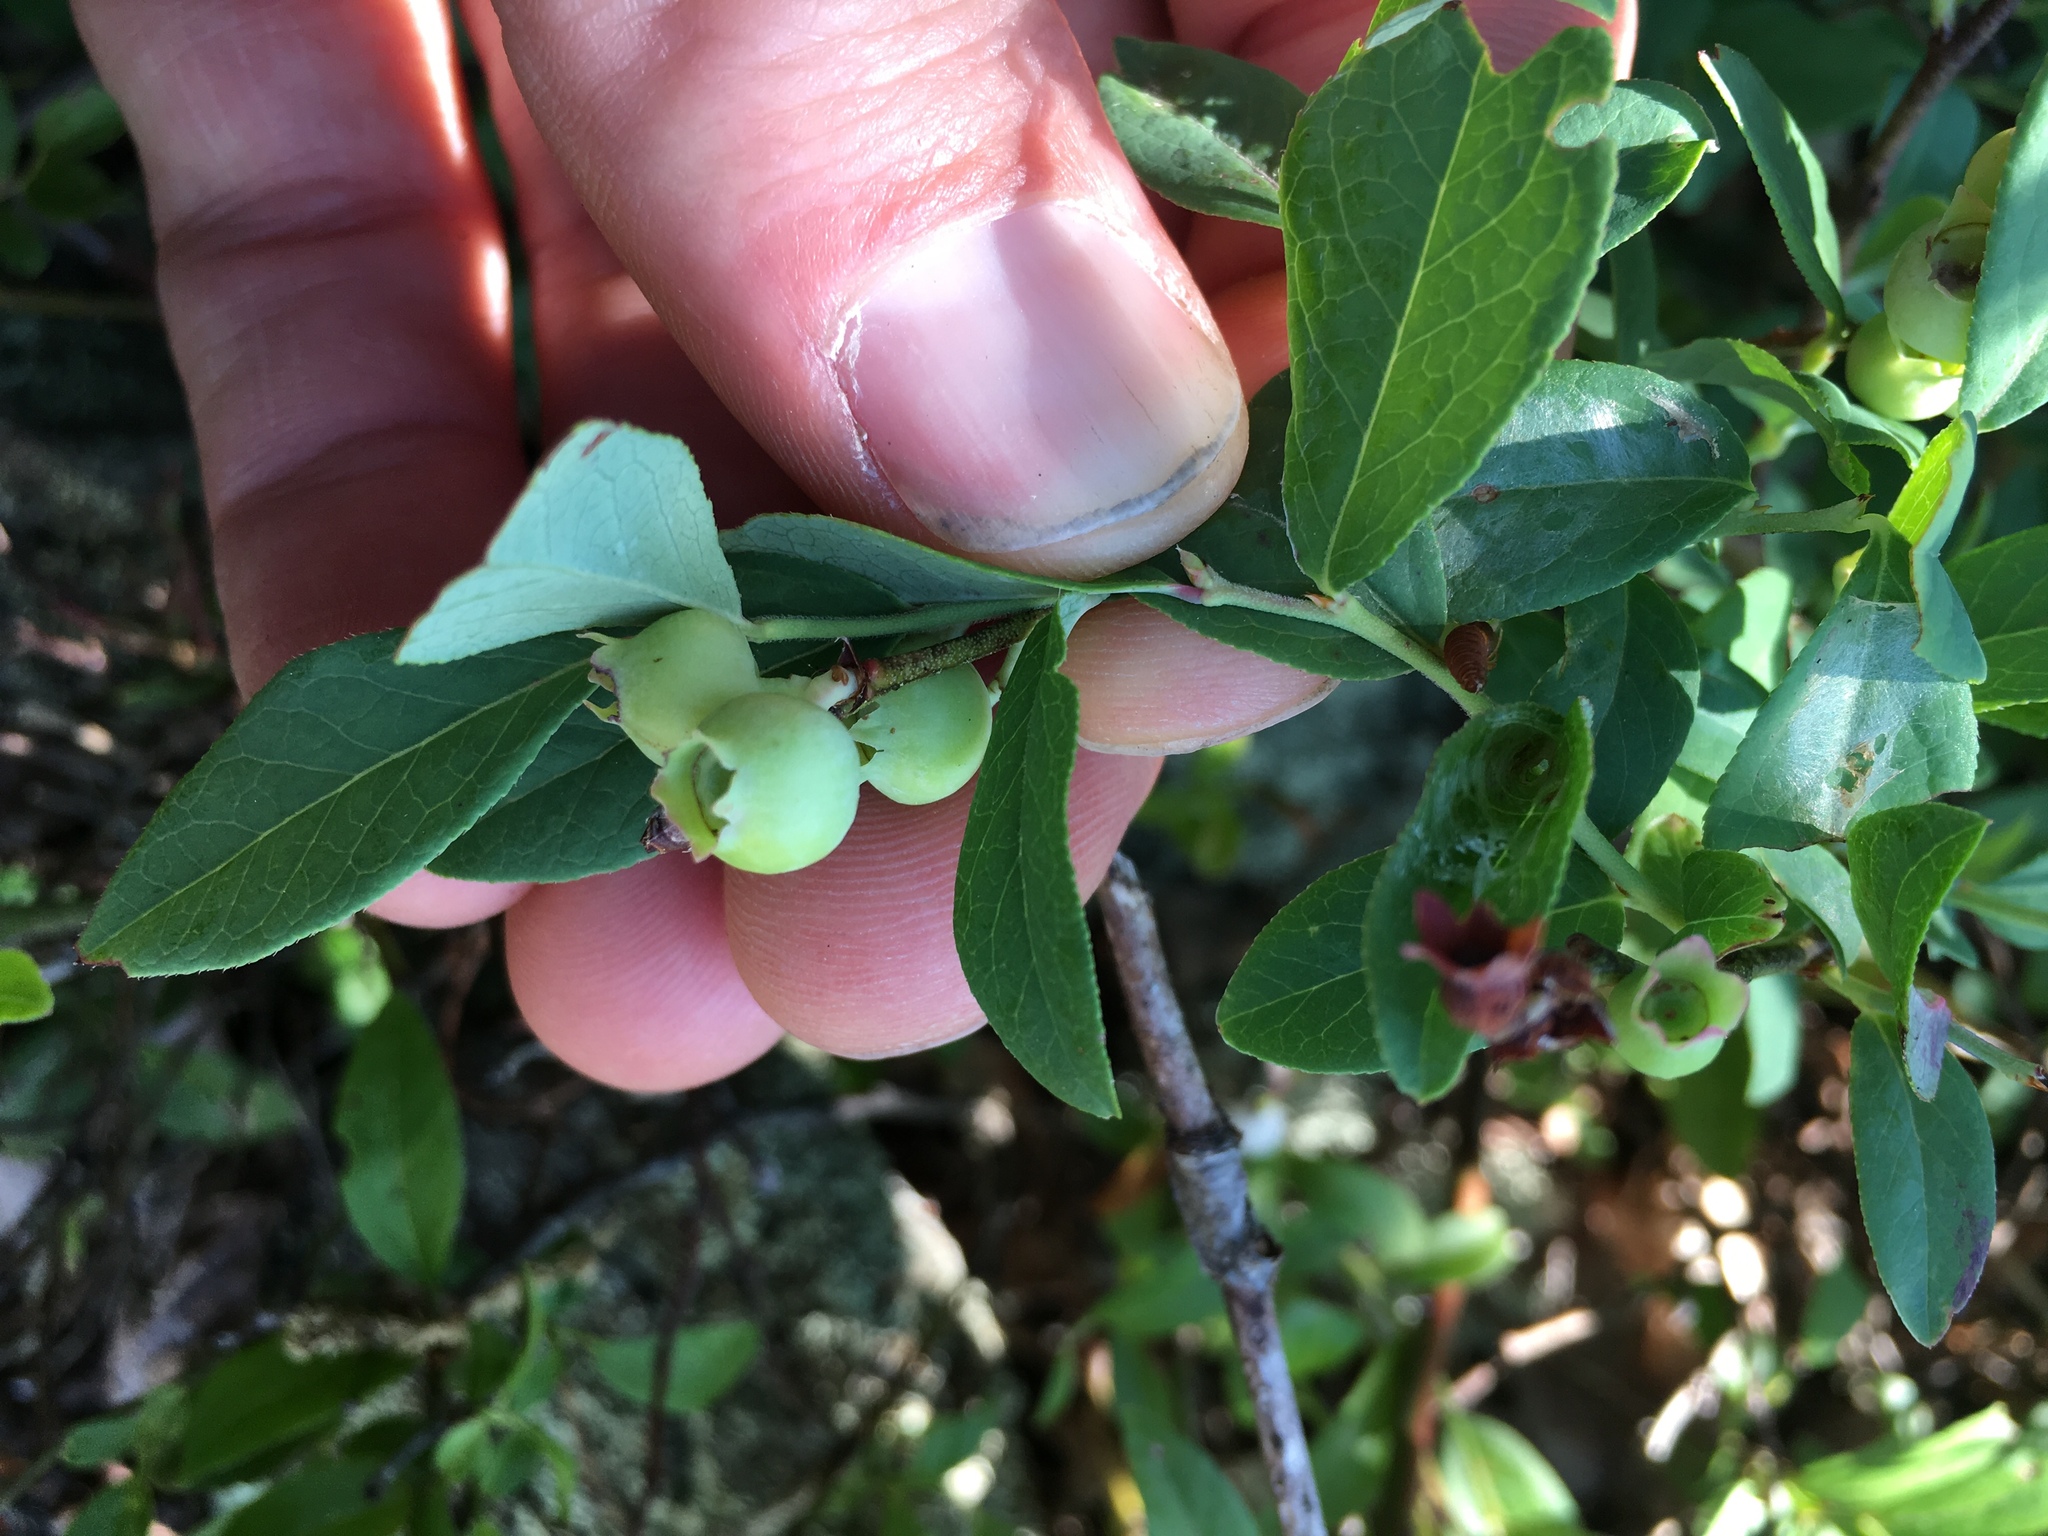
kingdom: Plantae
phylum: Tracheophyta
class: Magnoliopsida
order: Ericales
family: Ericaceae
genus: Vaccinium
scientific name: Vaccinium angustifolium
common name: Early lowbush blueberry
